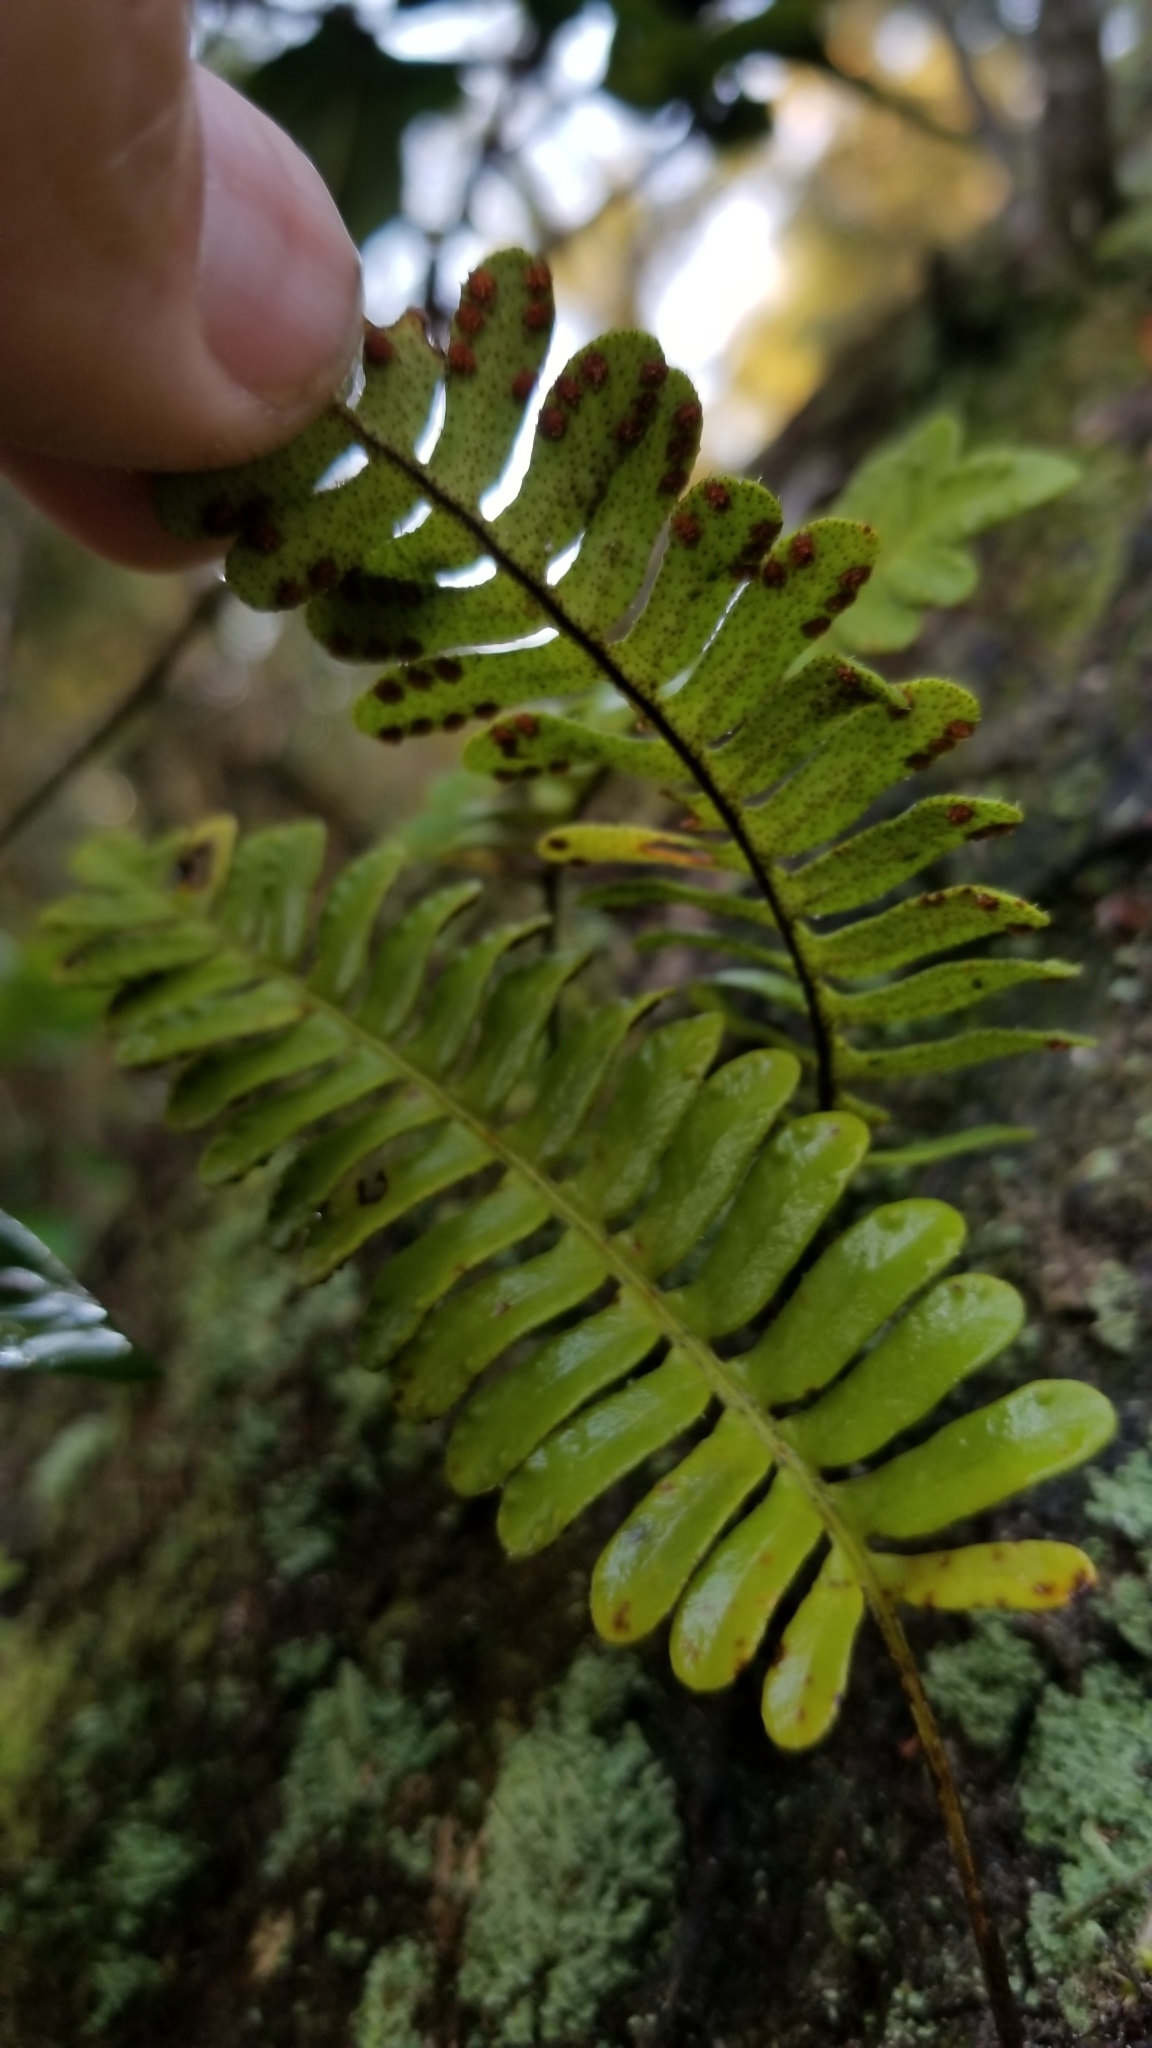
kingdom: Plantae
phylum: Tracheophyta
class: Polypodiopsida
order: Polypodiales
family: Polypodiaceae
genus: Pleopeltis
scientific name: Pleopeltis michauxiana
